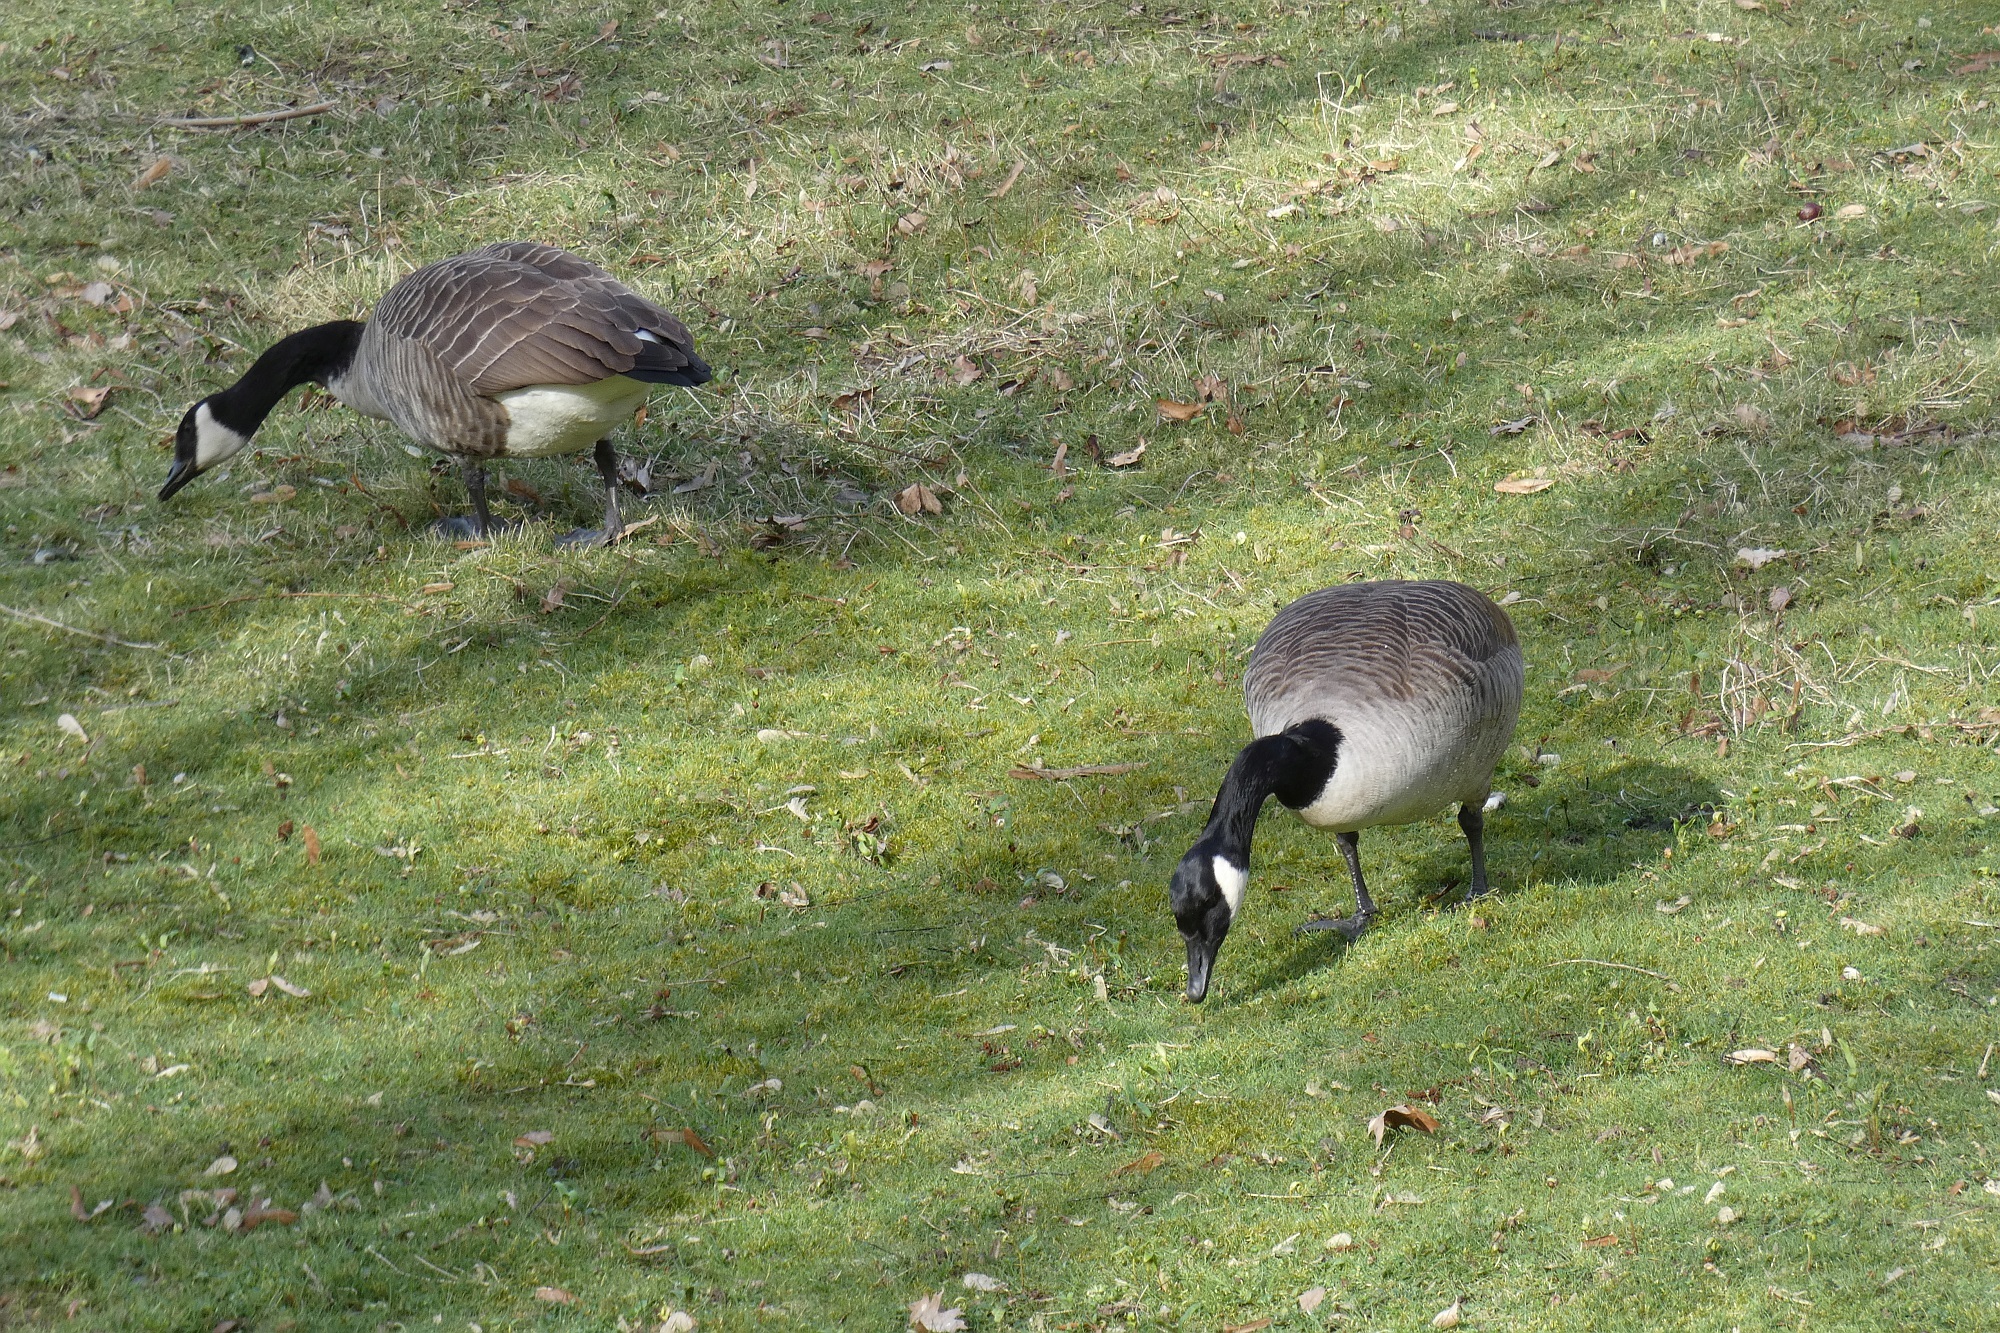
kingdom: Animalia
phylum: Chordata
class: Aves
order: Anseriformes
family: Anatidae
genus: Branta
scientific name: Branta canadensis
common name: Canada goose
